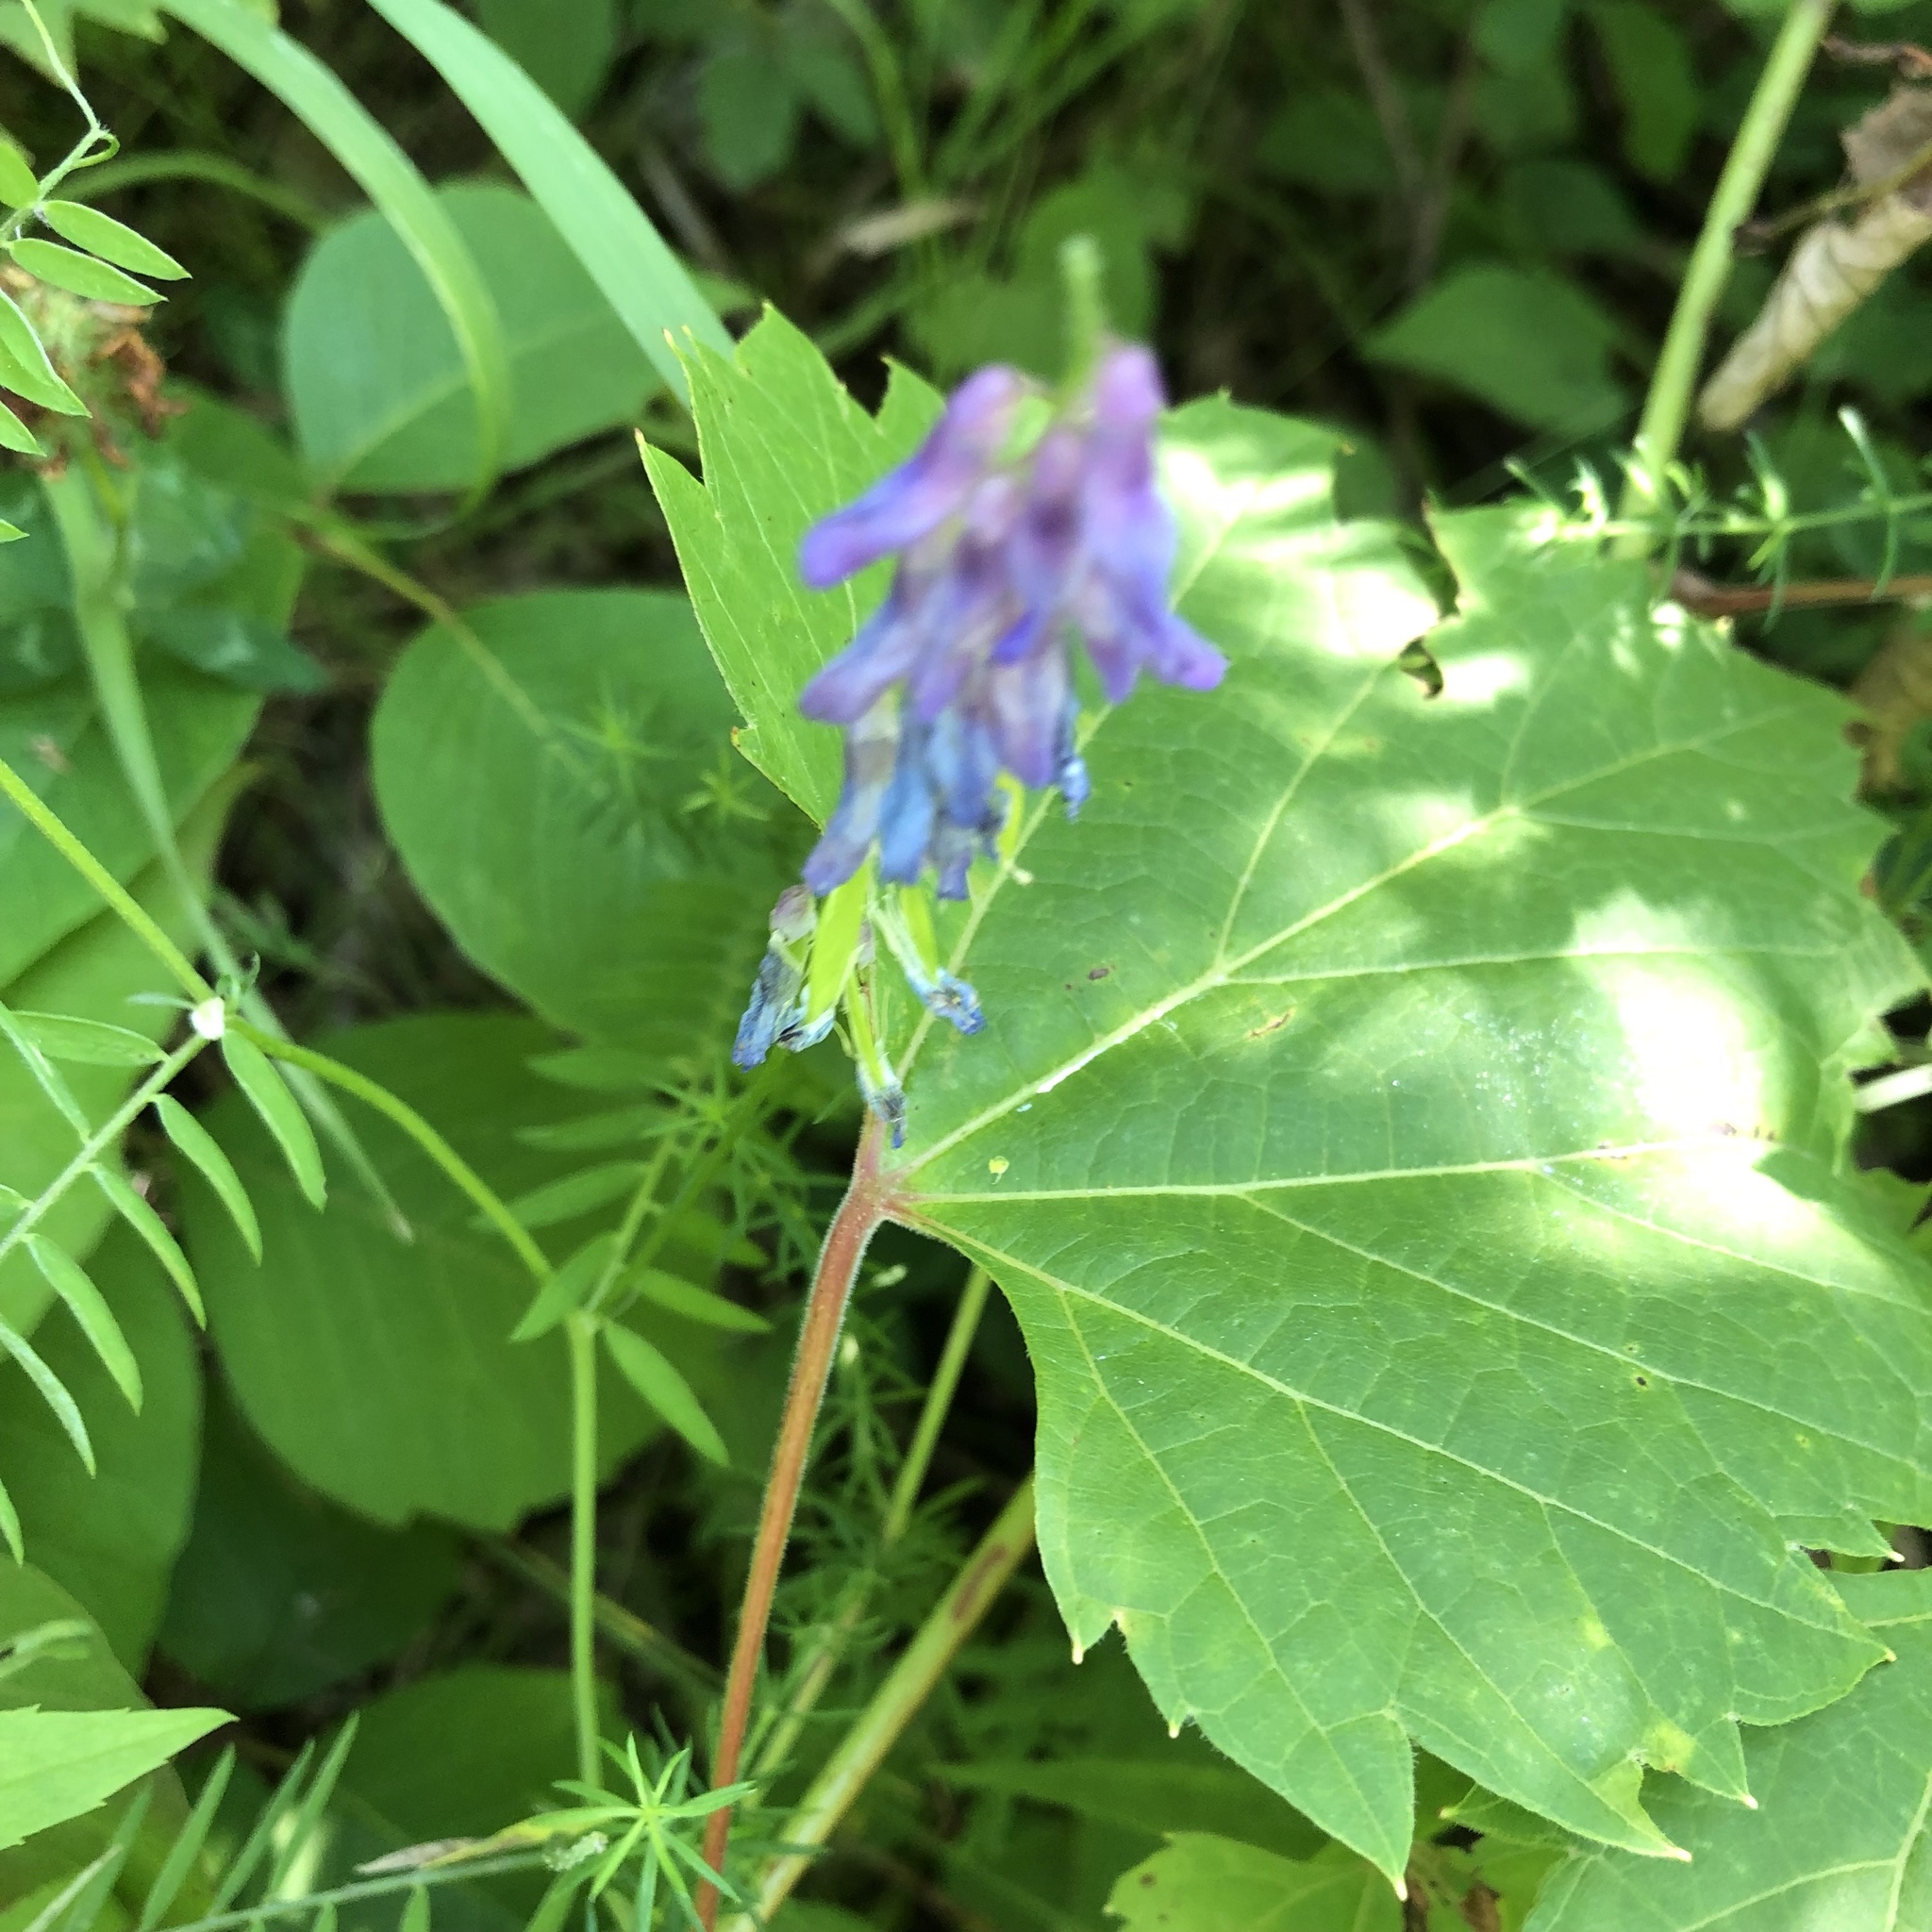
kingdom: Plantae
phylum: Tracheophyta
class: Magnoliopsida
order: Fabales
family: Fabaceae
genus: Vicia
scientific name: Vicia cracca
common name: Bird vetch
